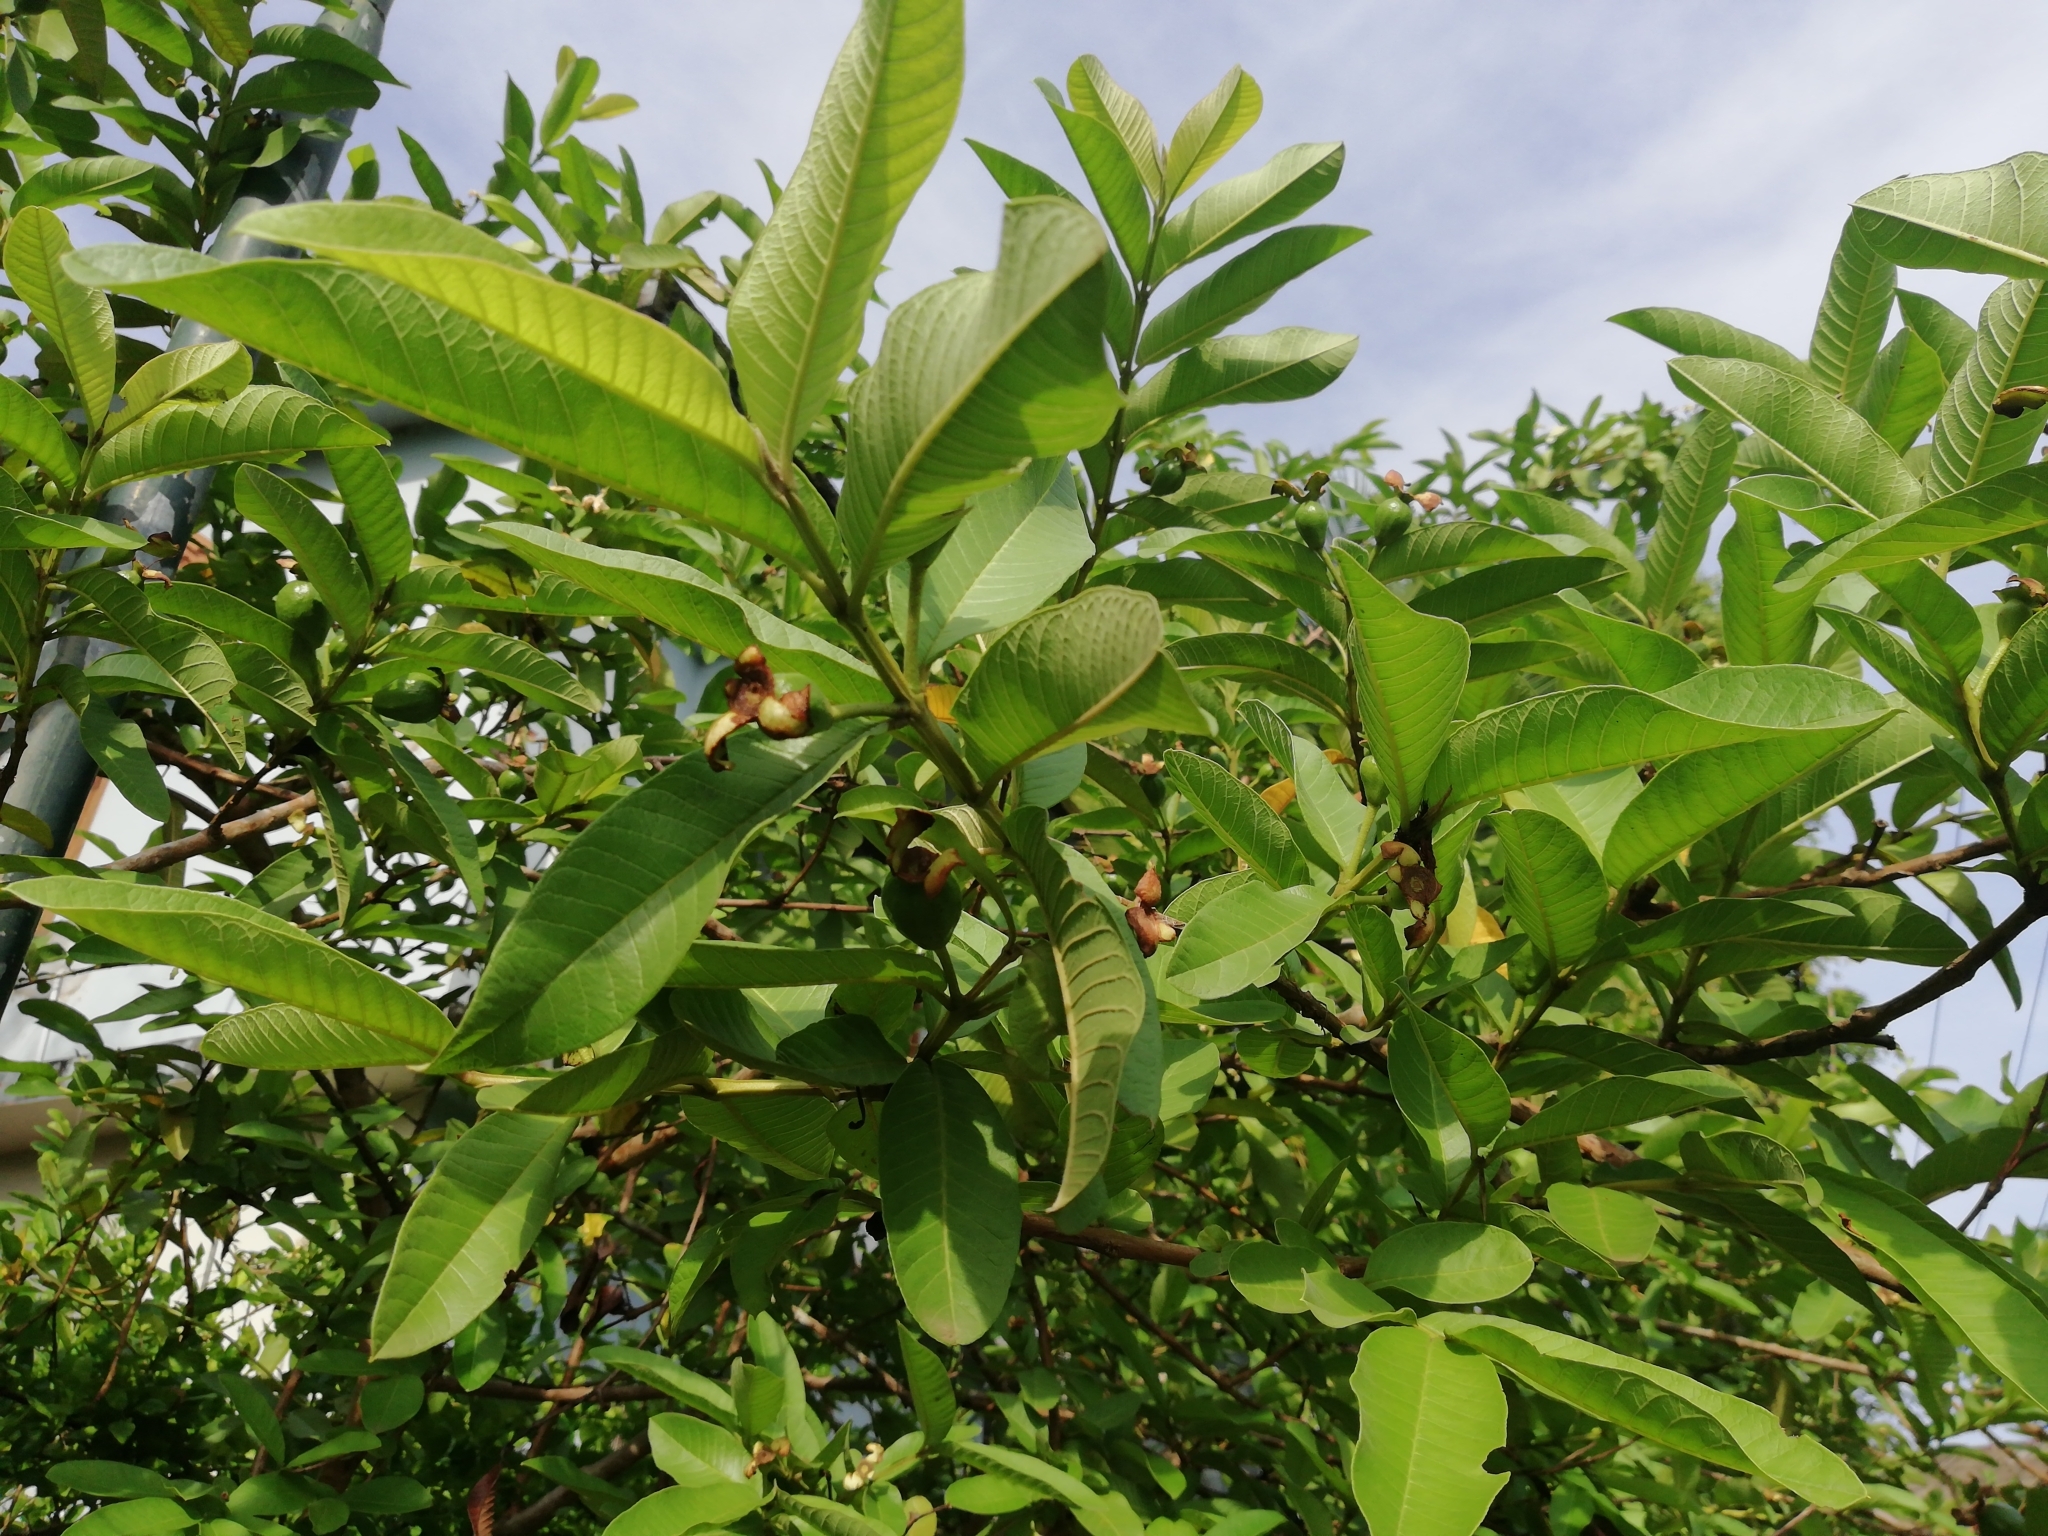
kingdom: Plantae
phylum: Tracheophyta
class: Magnoliopsida
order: Myrtales
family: Myrtaceae
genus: Psidium
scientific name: Psidium guajava
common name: Guava
